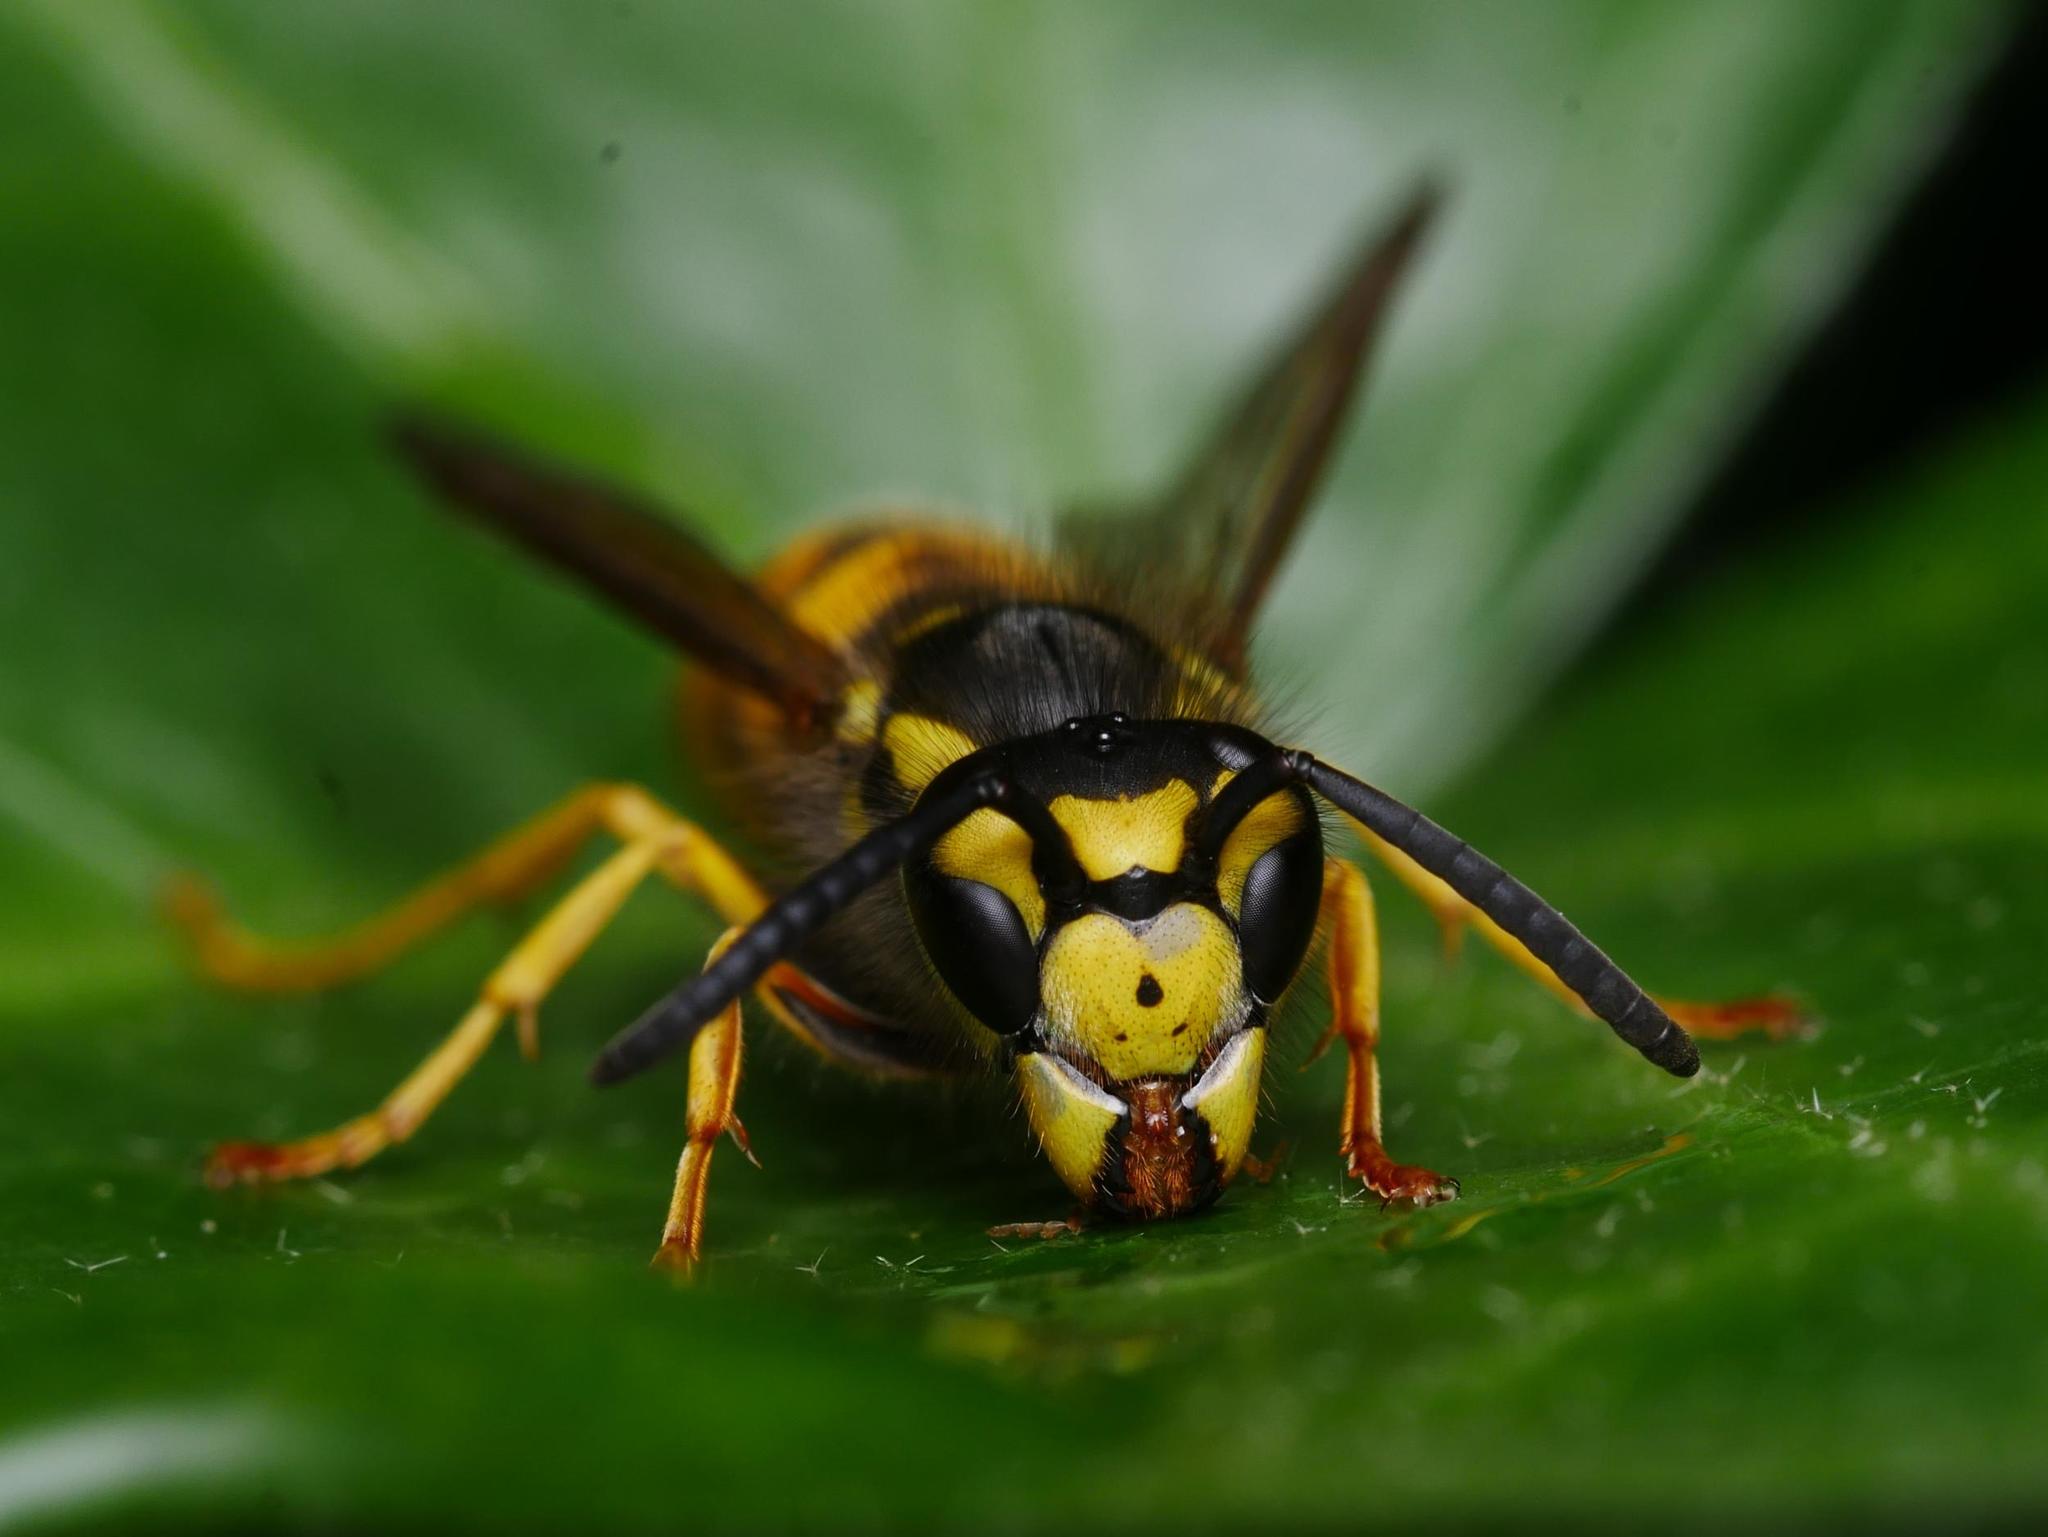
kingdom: Animalia
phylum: Arthropoda
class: Insecta
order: Hymenoptera
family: Vespidae
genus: Vespula
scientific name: Vespula germanica
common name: German wasp
